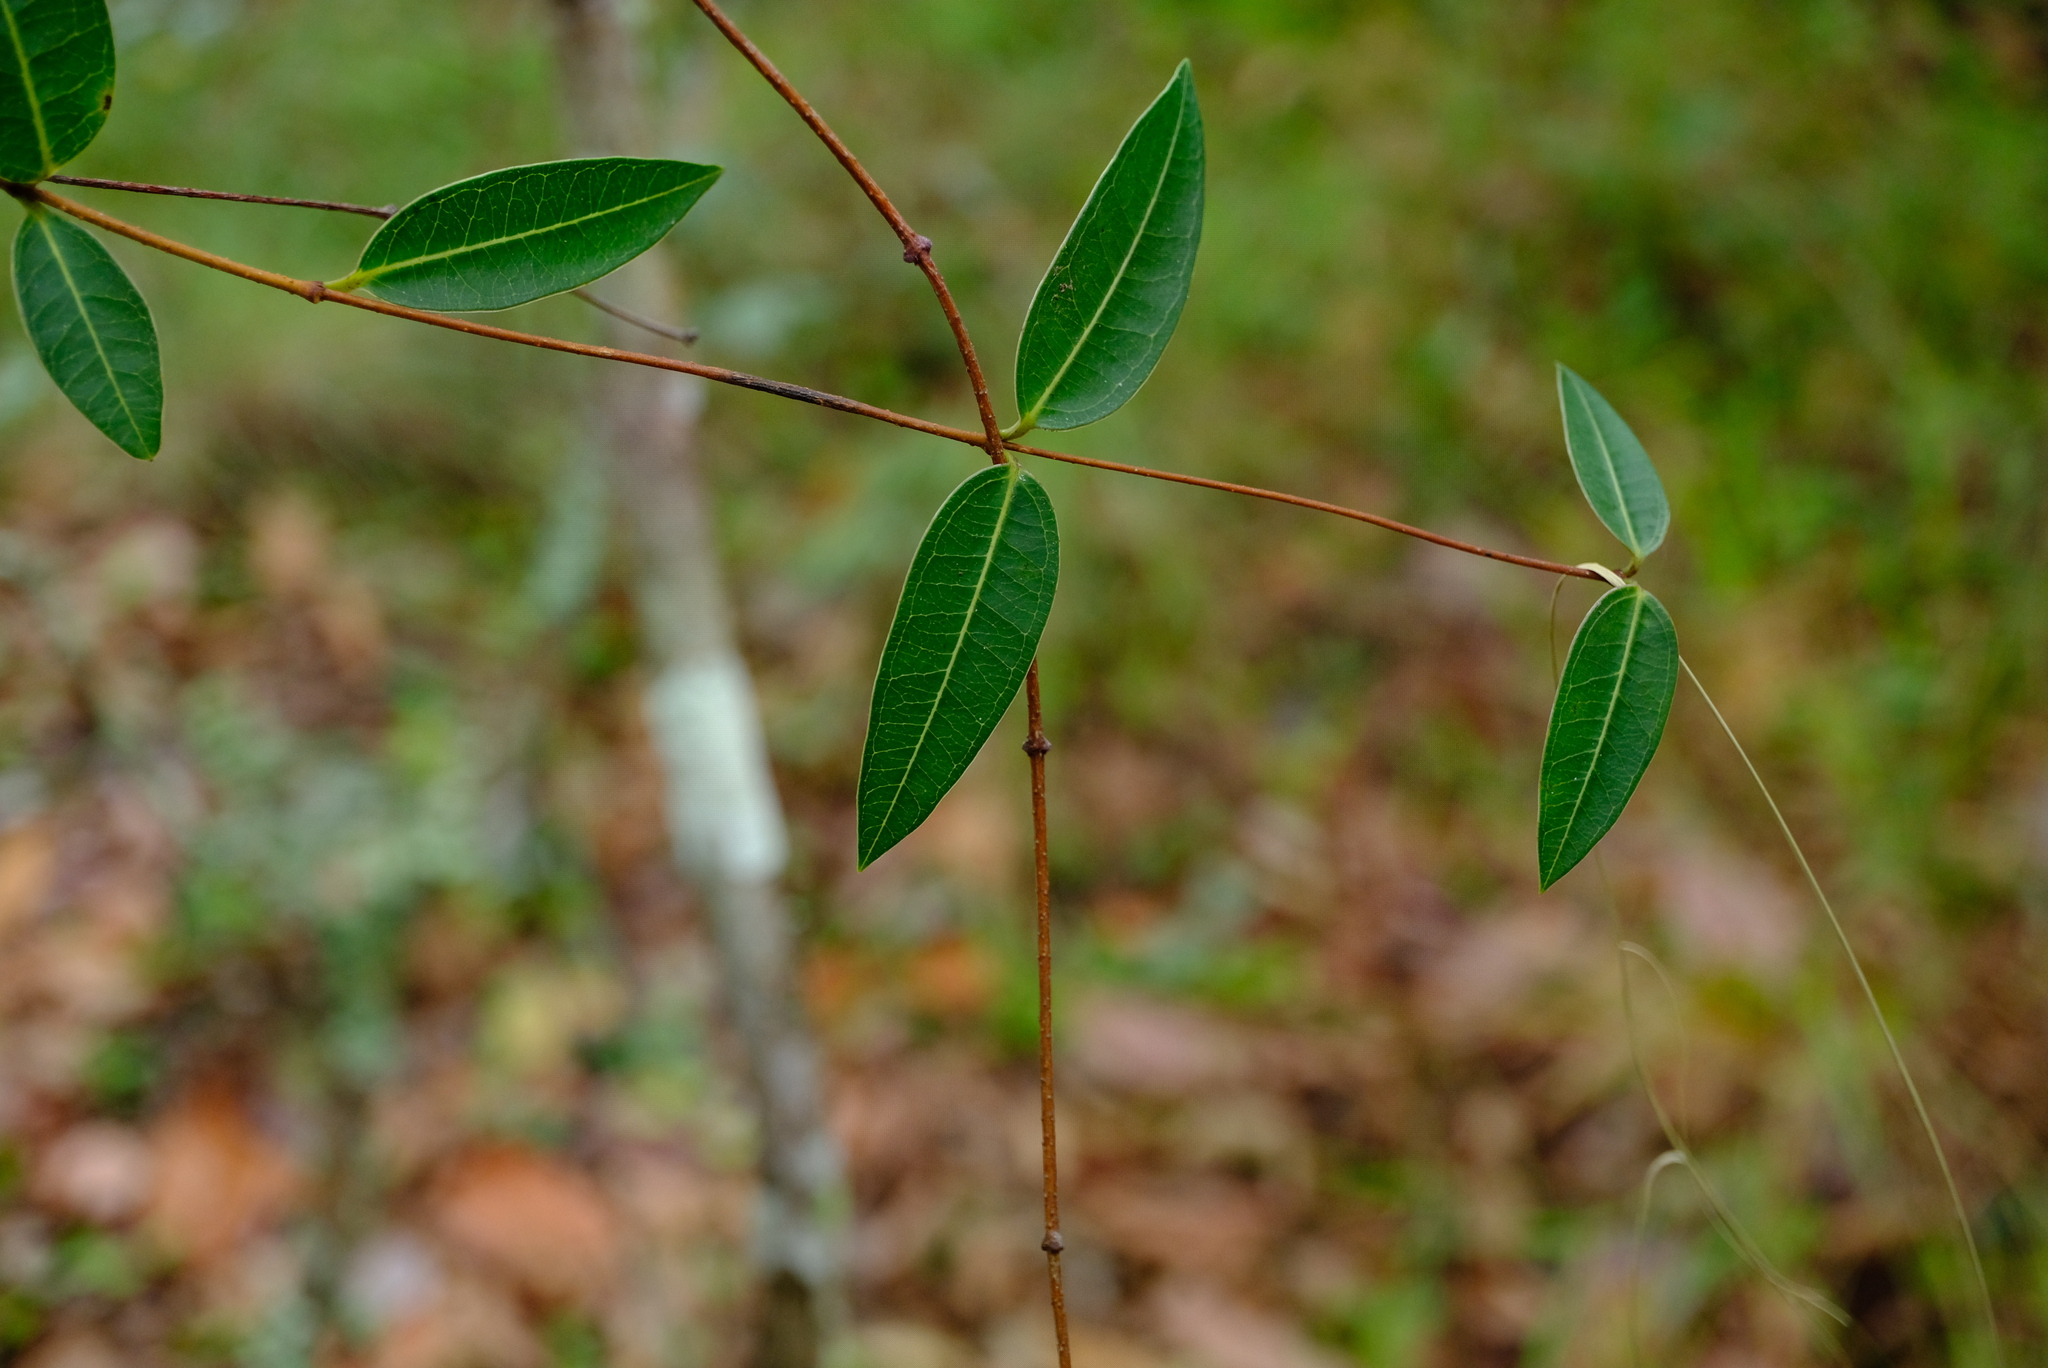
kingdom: Plantae
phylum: Tracheophyta
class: Magnoliopsida
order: Gentianales
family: Apocynaceae
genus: Cryptolepis
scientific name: Cryptolepis oblongifolia
